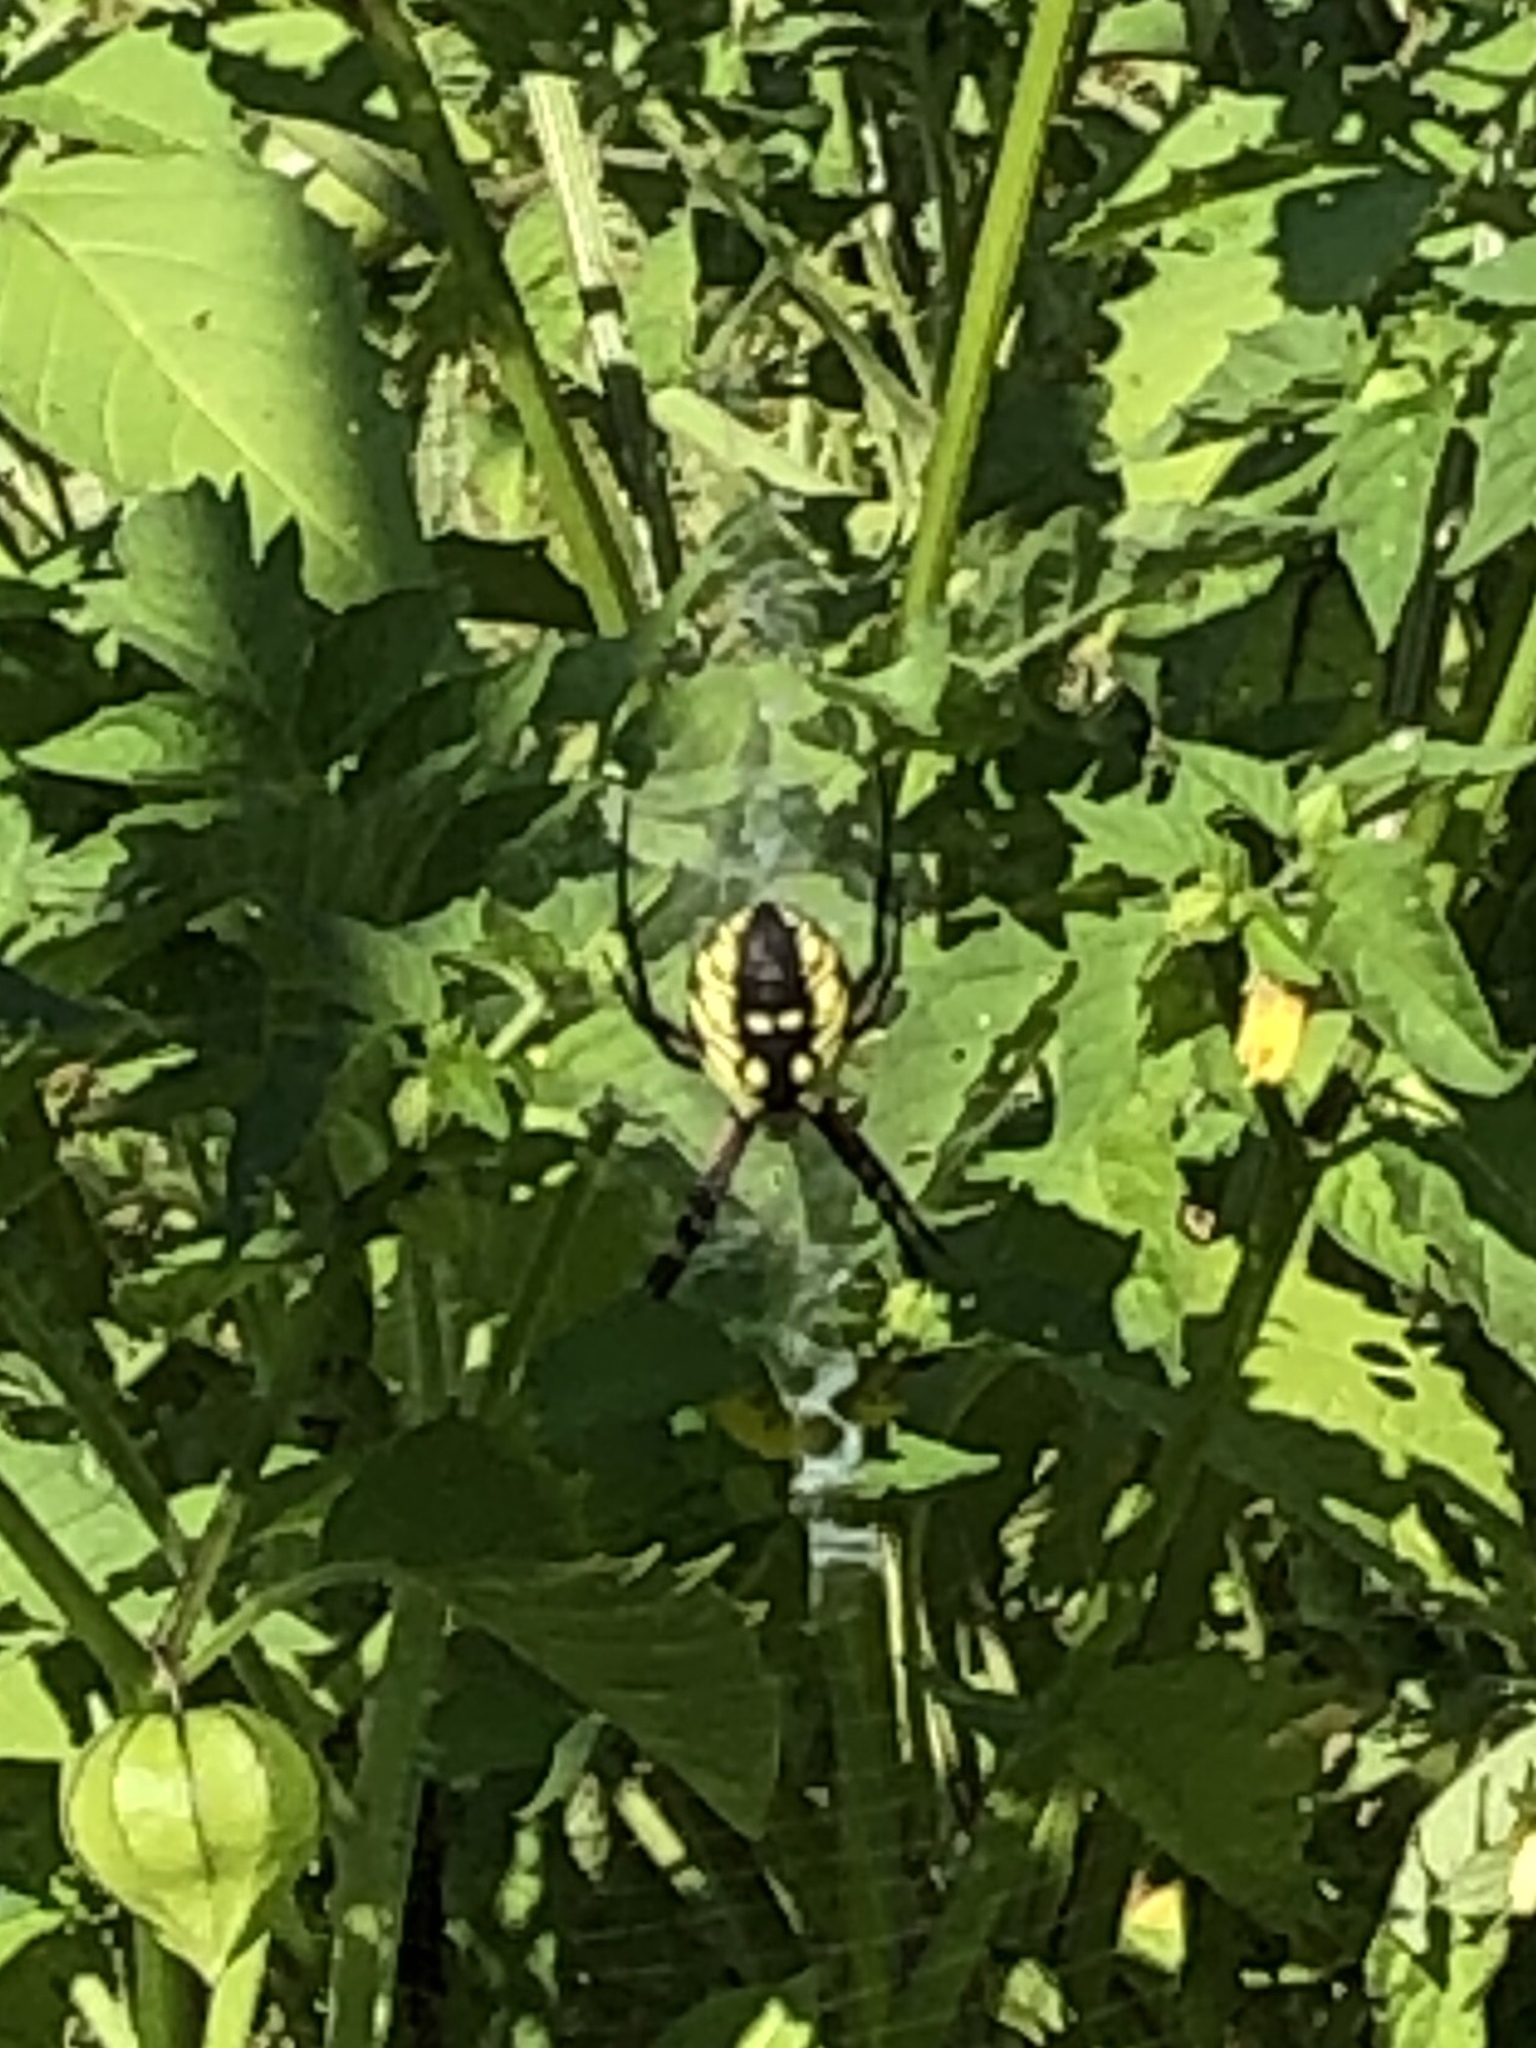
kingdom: Animalia
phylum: Arthropoda
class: Arachnida
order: Araneae
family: Araneidae
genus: Argiope
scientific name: Argiope aurantia
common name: Orb weavers
